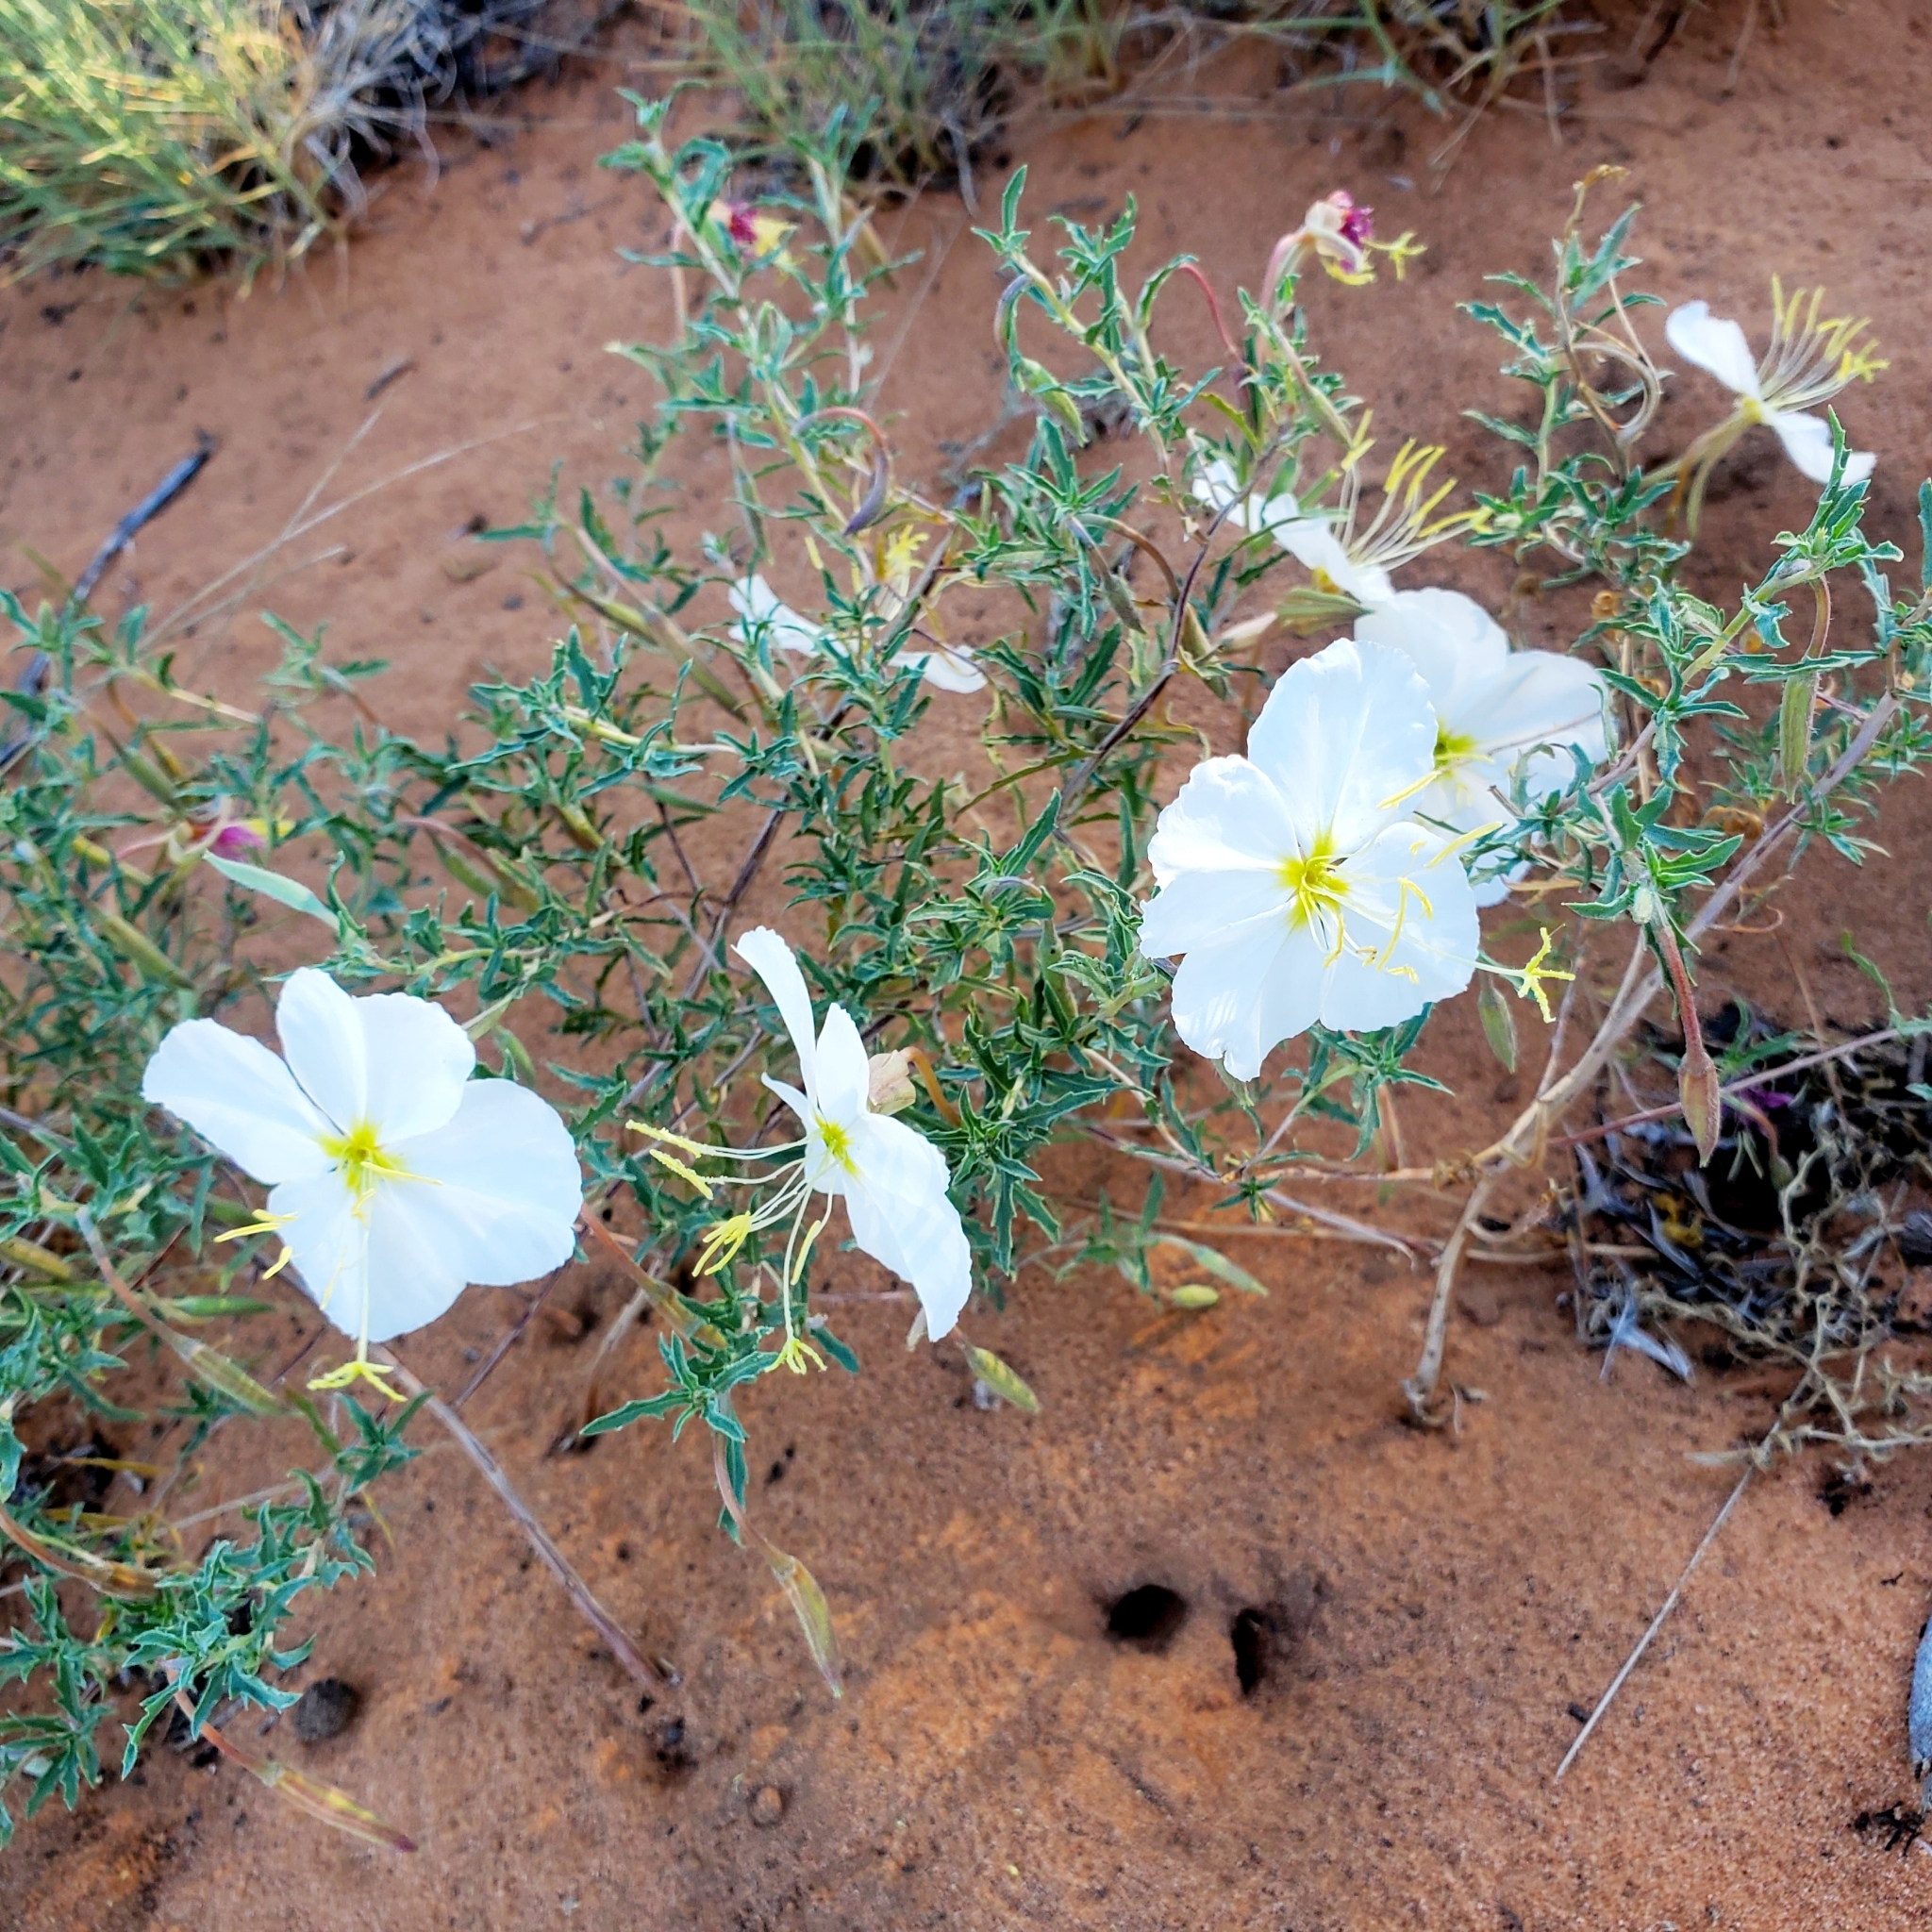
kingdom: Plantae
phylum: Tracheophyta
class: Magnoliopsida
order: Myrtales
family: Onagraceae
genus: Oenothera
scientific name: Oenothera pallida
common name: Pale evening-primrose
